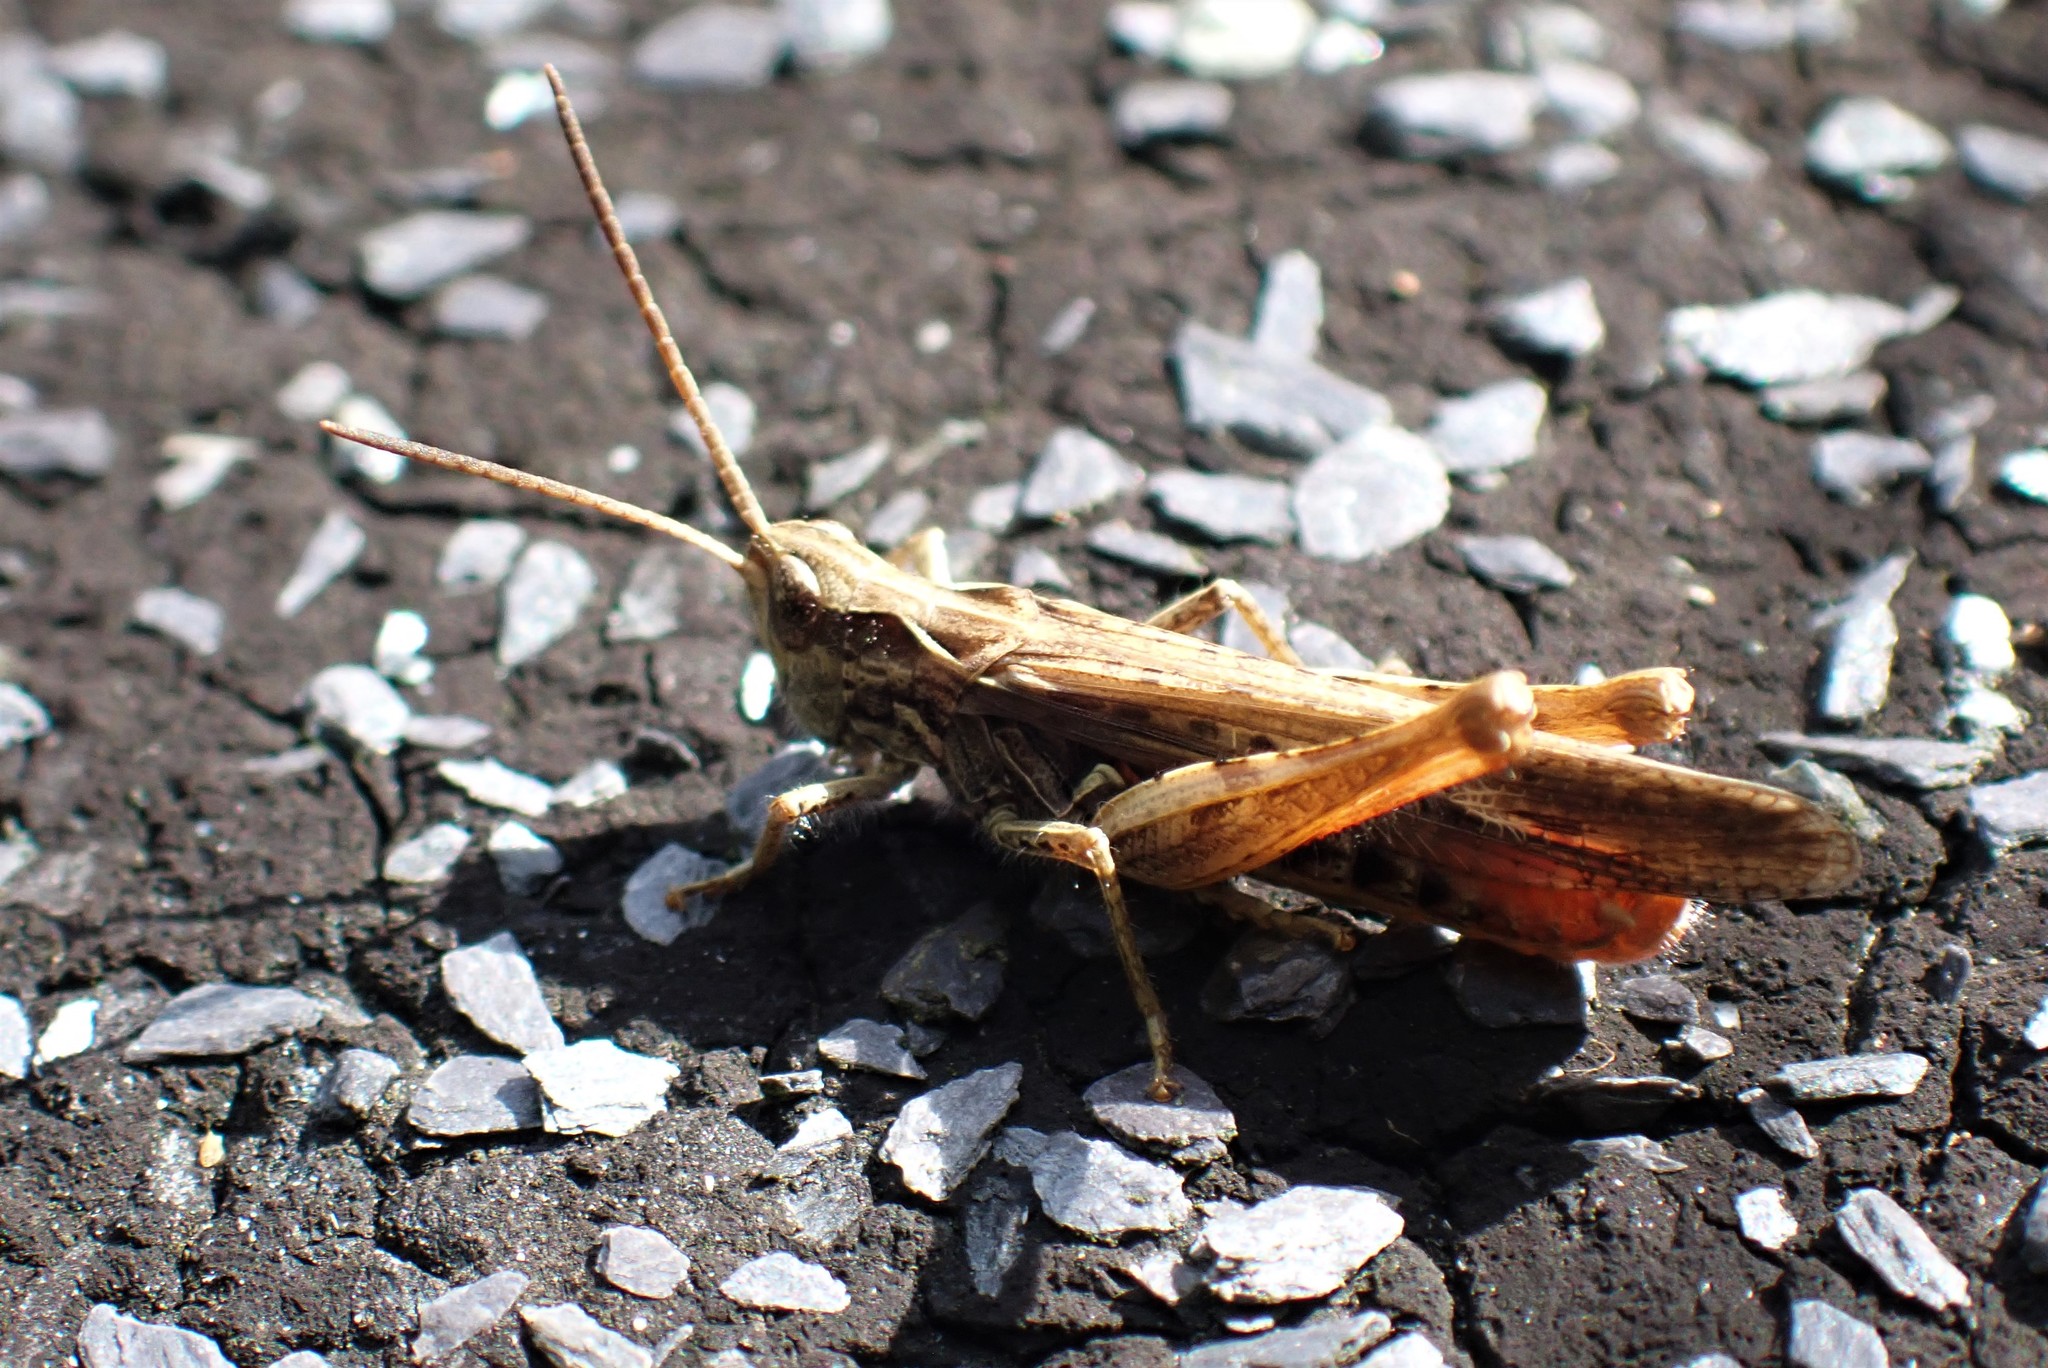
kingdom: Animalia
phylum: Arthropoda
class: Insecta
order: Orthoptera
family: Acrididae
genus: Chorthippus
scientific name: Chorthippus brunneus
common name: Field grasshopper
